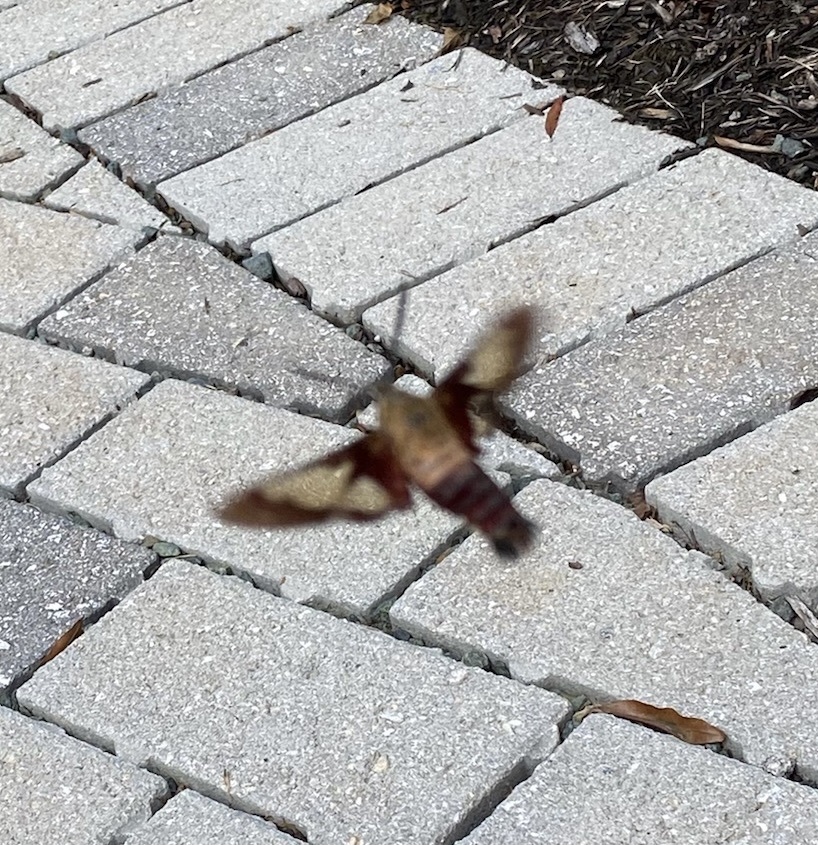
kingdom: Animalia
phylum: Arthropoda
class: Insecta
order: Lepidoptera
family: Sphingidae
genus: Hemaris
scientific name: Hemaris thysbe
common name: Common clear-wing
